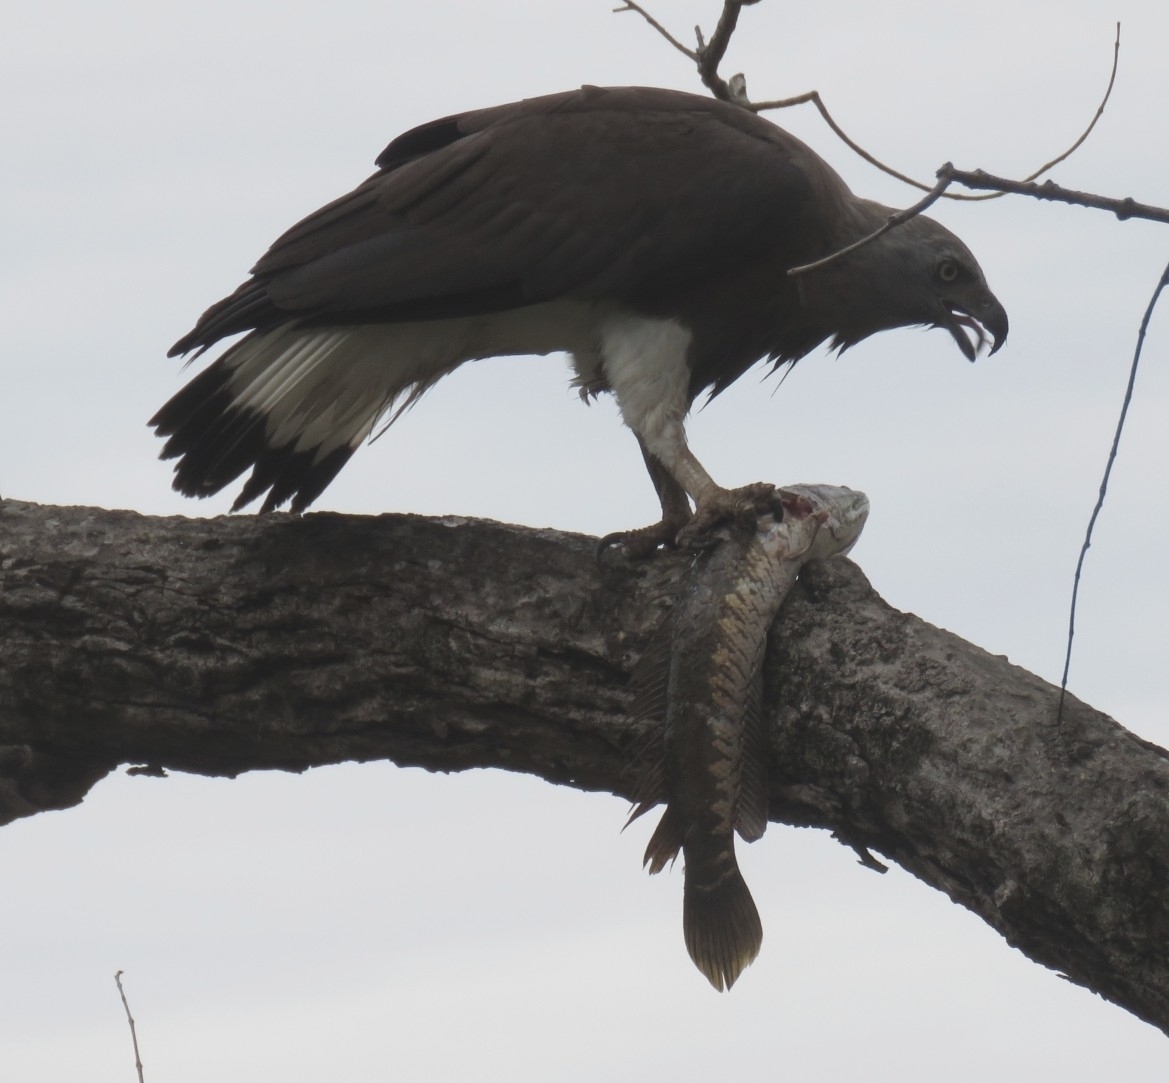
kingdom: Animalia
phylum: Chordata
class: Aves
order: Accipitriformes
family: Accipitridae
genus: Icthyophaga
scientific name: Icthyophaga ichthyaetus
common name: Grey-headed fish eagle
